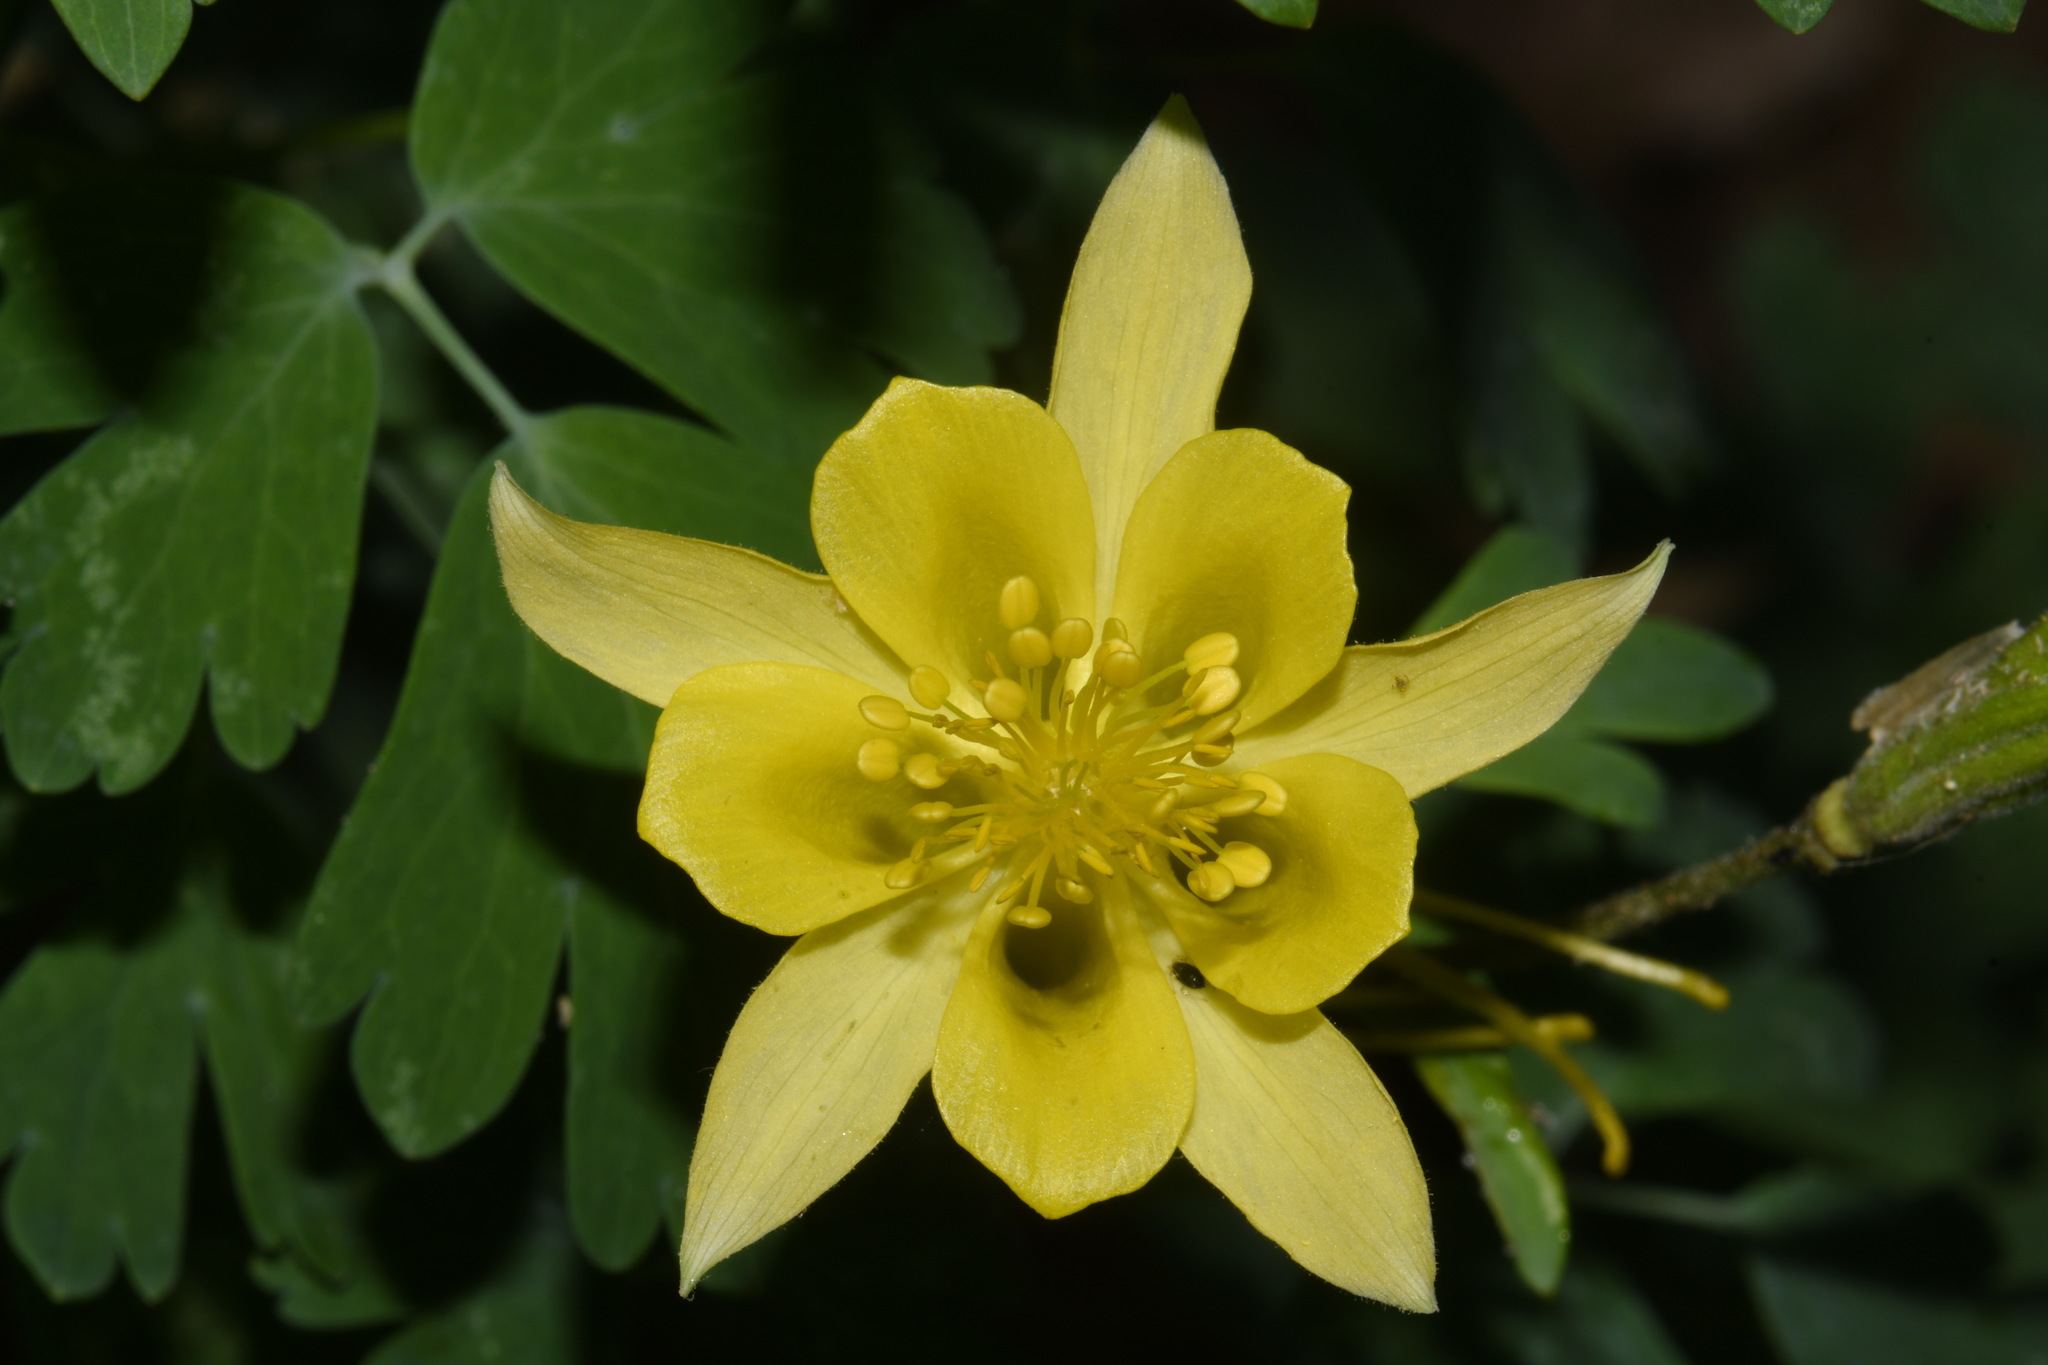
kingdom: Plantae
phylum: Tracheophyta
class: Magnoliopsida
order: Ranunculales
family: Ranunculaceae
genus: Aquilegia
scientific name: Aquilegia chrysantha
